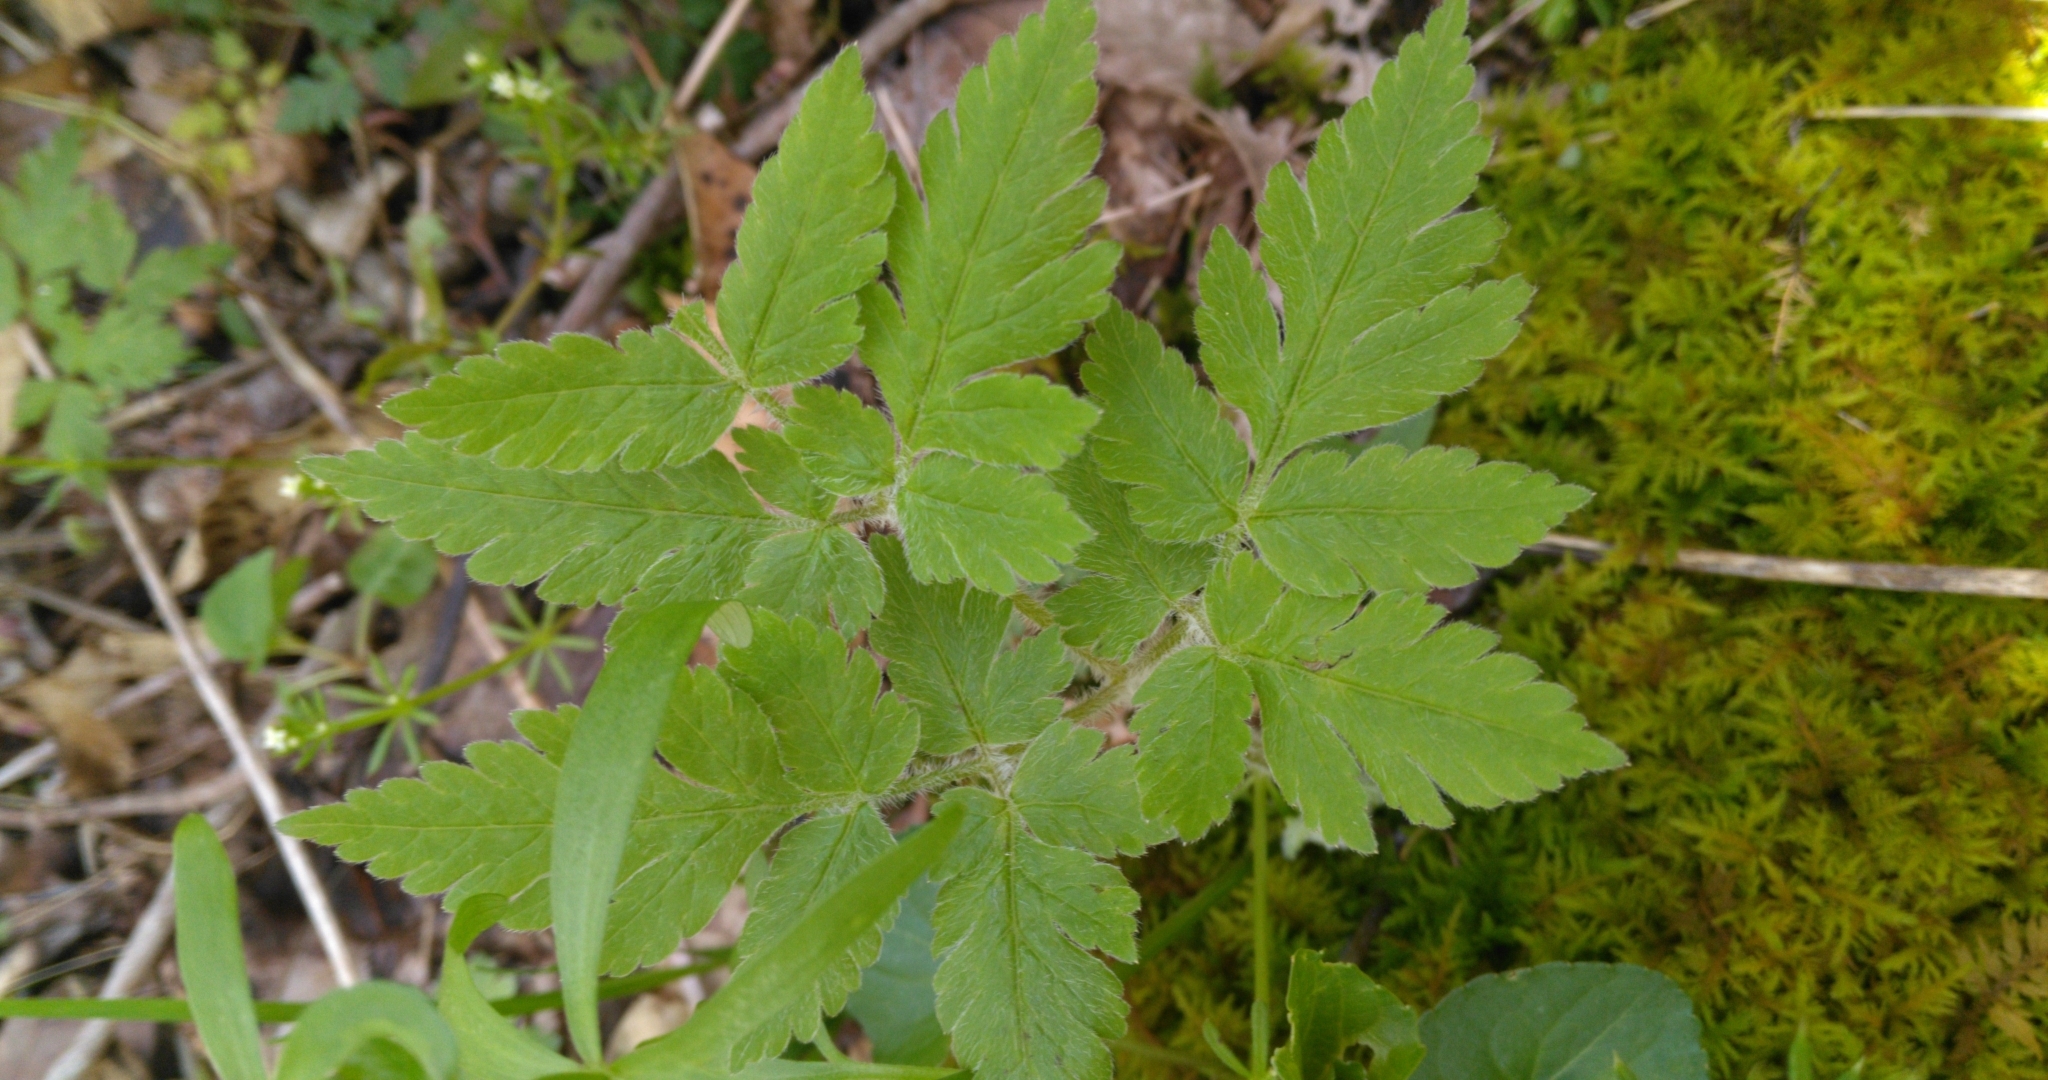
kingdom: Plantae
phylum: Tracheophyta
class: Magnoliopsida
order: Apiales
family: Apiaceae
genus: Osmorhiza
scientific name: Osmorhiza claytonii
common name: Hairy sweet cicely
